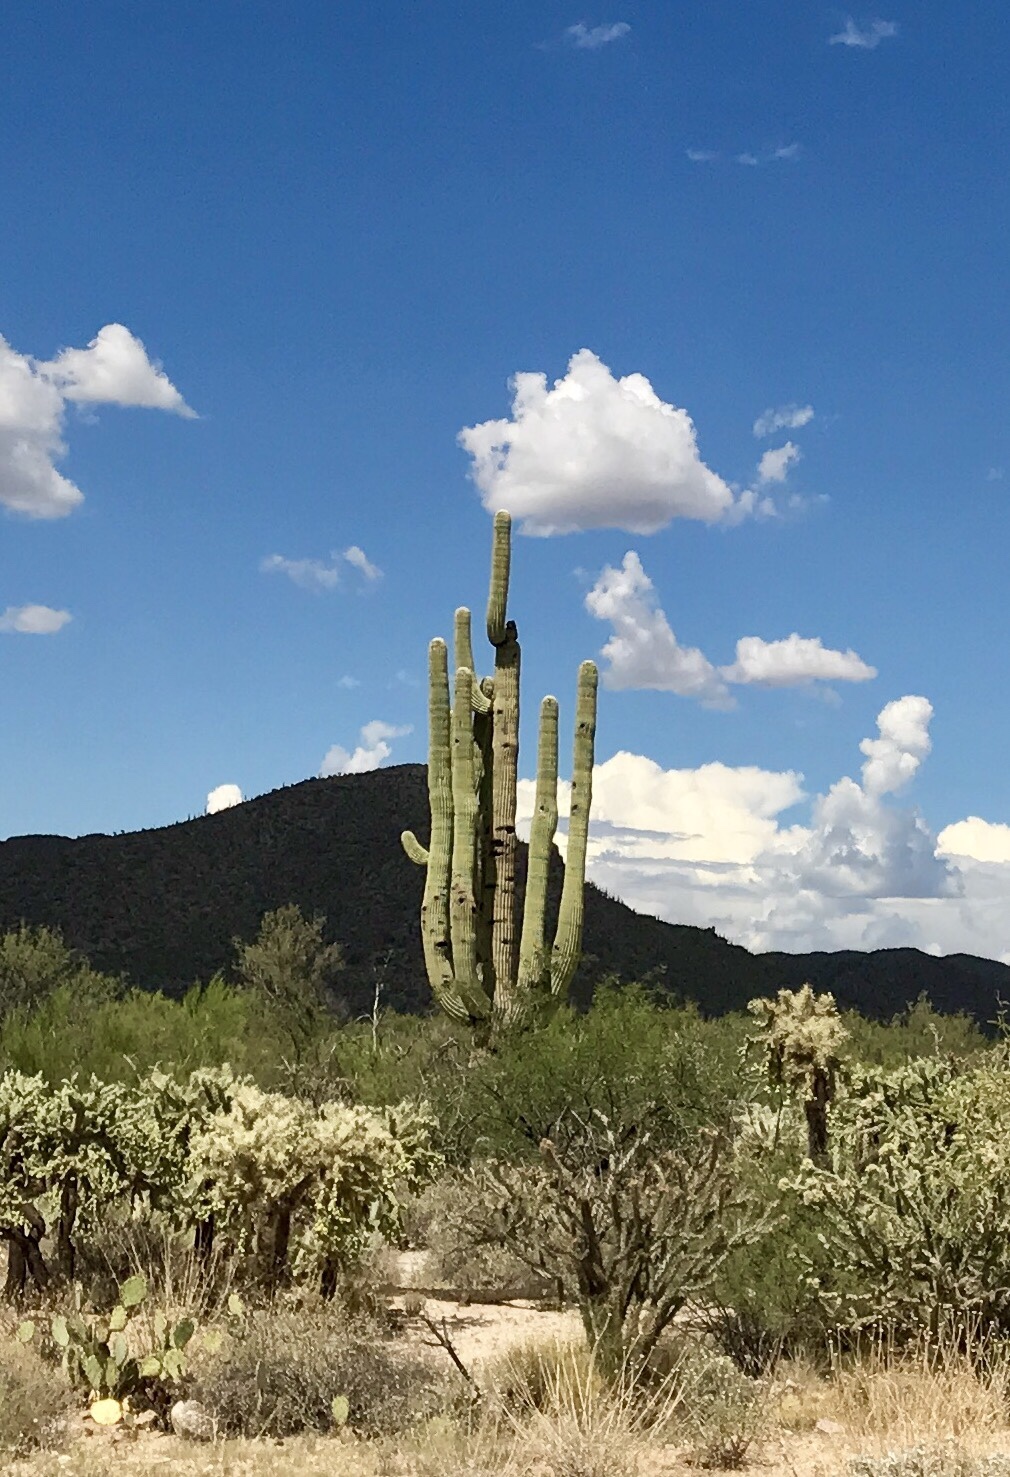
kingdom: Plantae
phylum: Tracheophyta
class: Magnoliopsida
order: Caryophyllales
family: Cactaceae
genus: Carnegiea
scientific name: Carnegiea gigantea
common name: Saguaro
